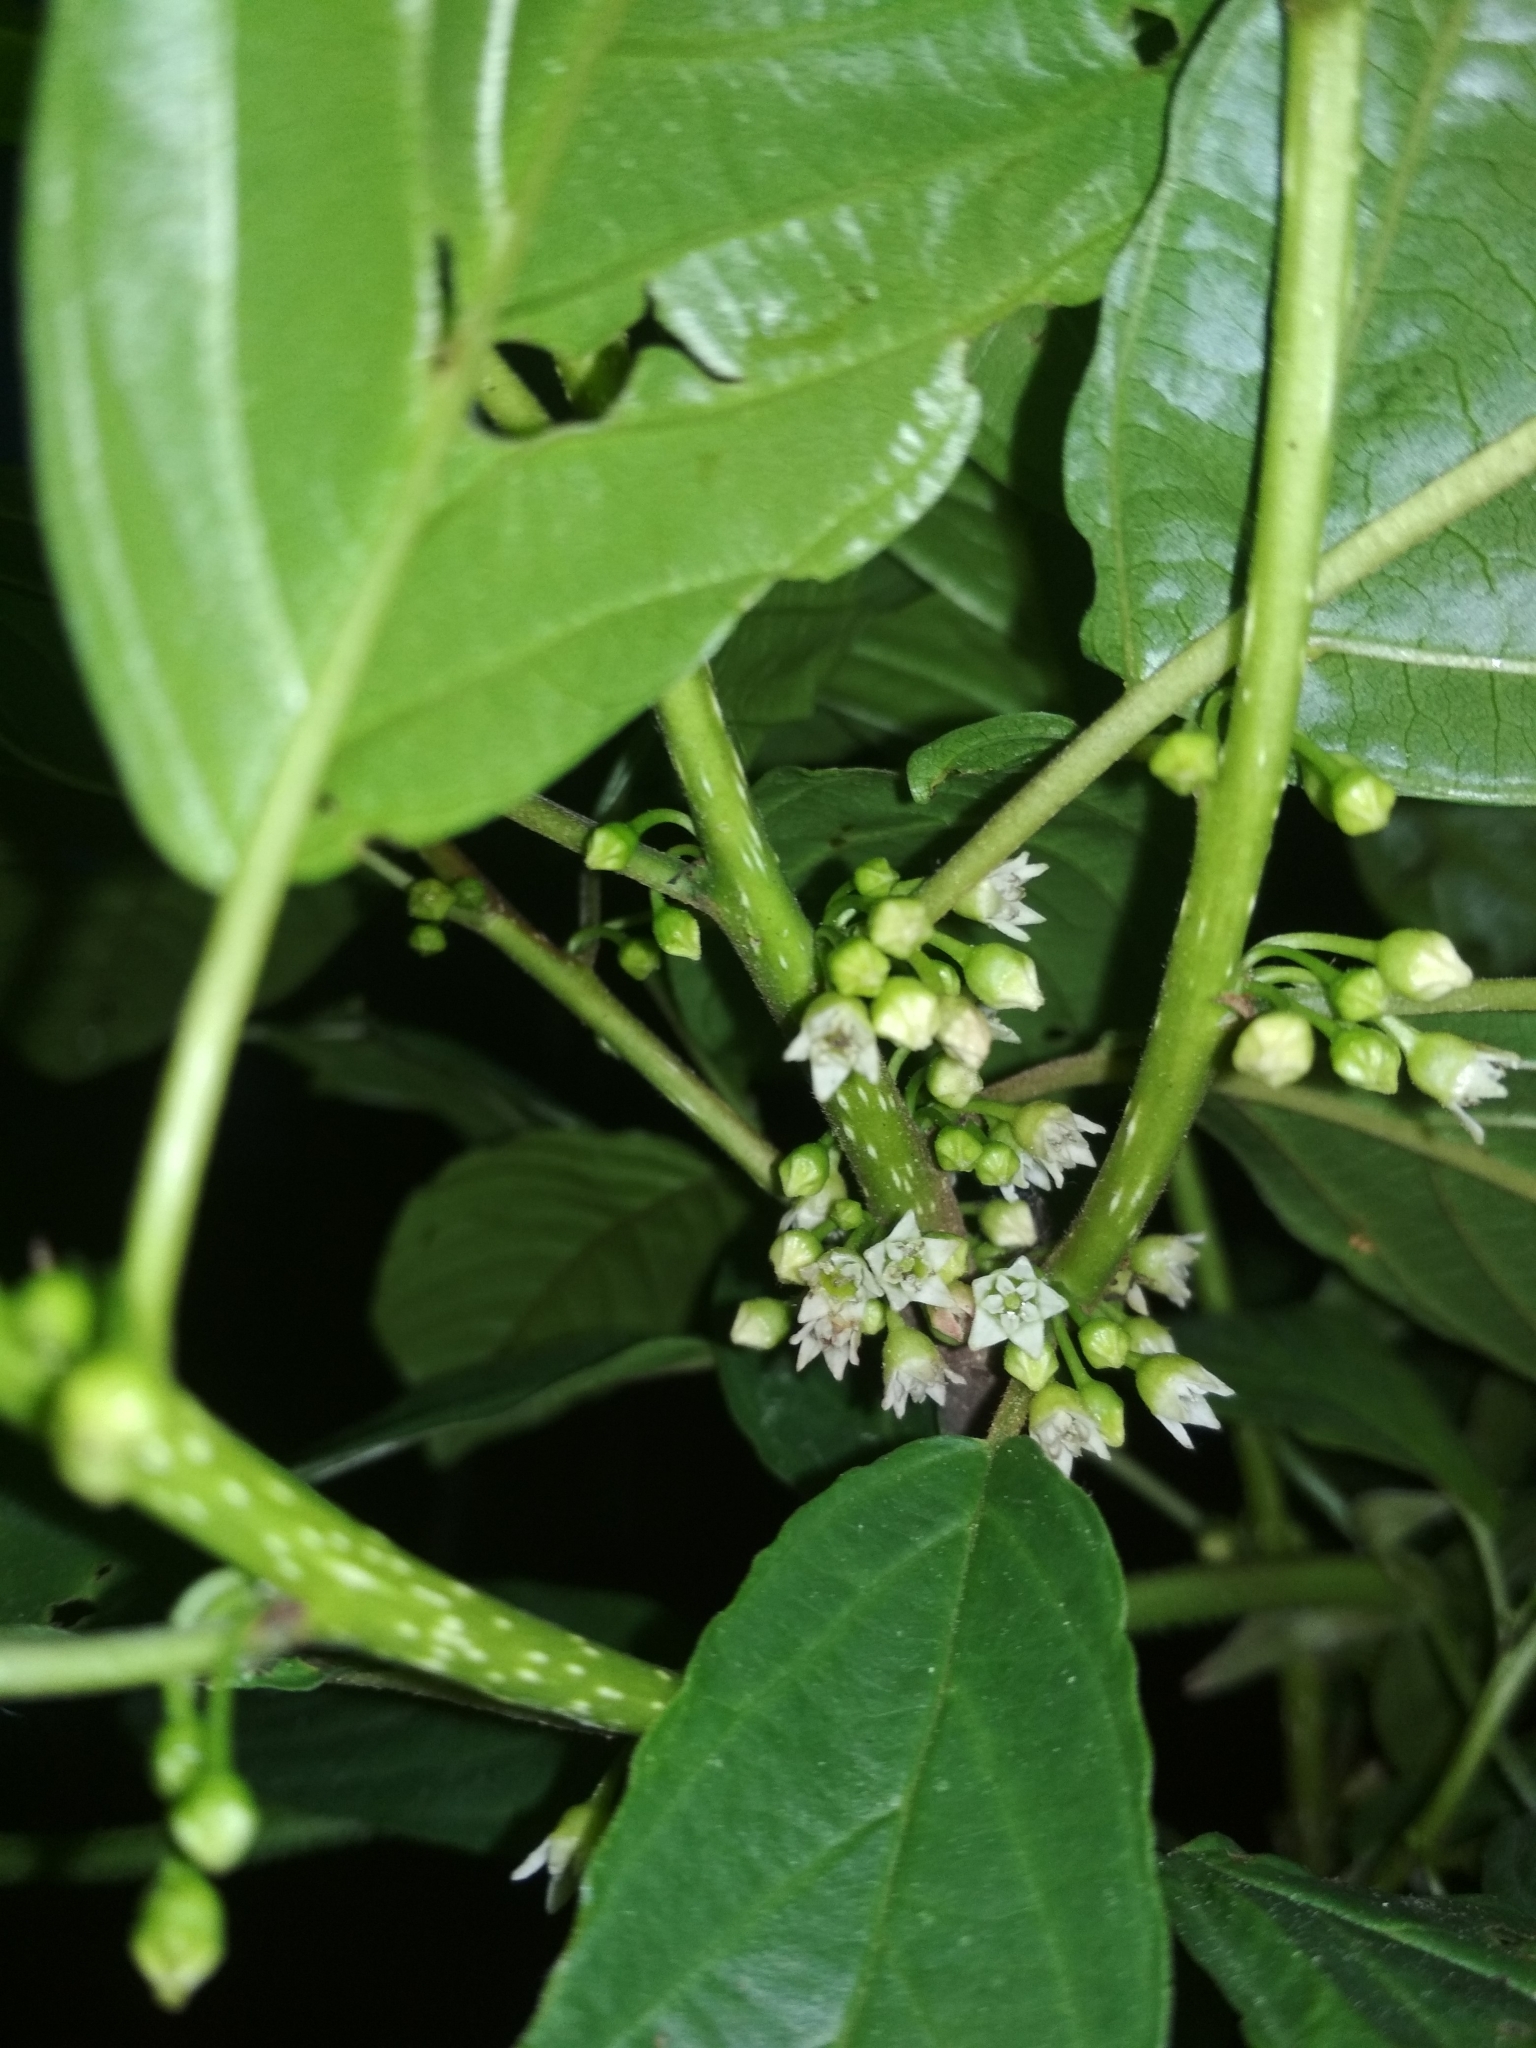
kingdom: Plantae
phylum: Tracheophyta
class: Magnoliopsida
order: Rosales
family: Rhamnaceae
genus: Frangula
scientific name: Frangula alnus
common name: Alder buckthorn
